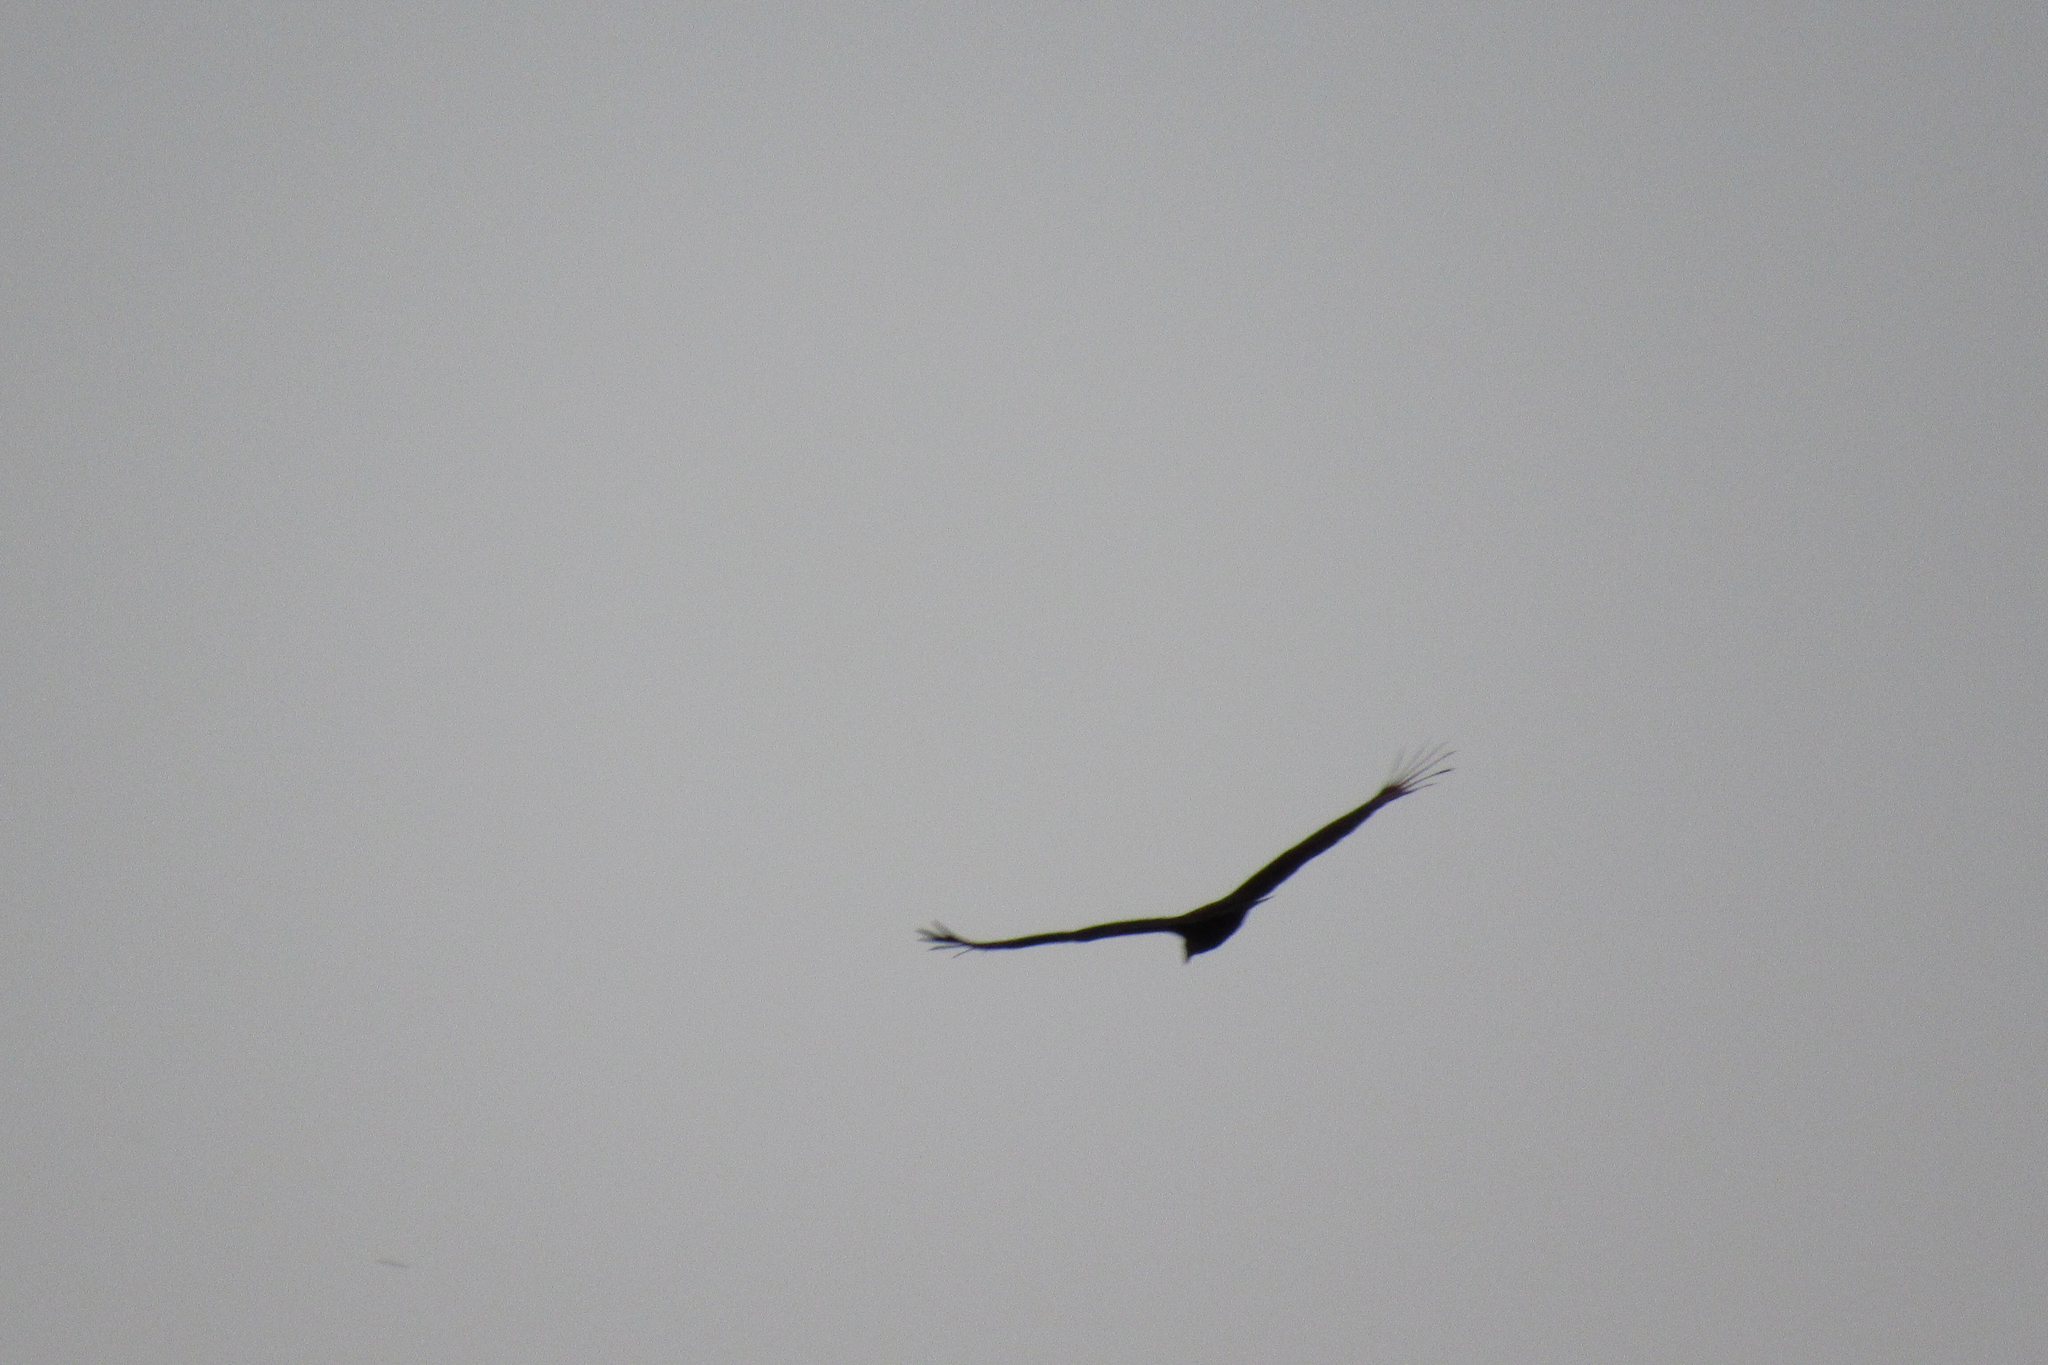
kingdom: Animalia
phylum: Chordata
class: Aves
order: Accipitriformes
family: Cathartidae
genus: Cathartes
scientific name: Cathartes aura
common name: Turkey vulture
